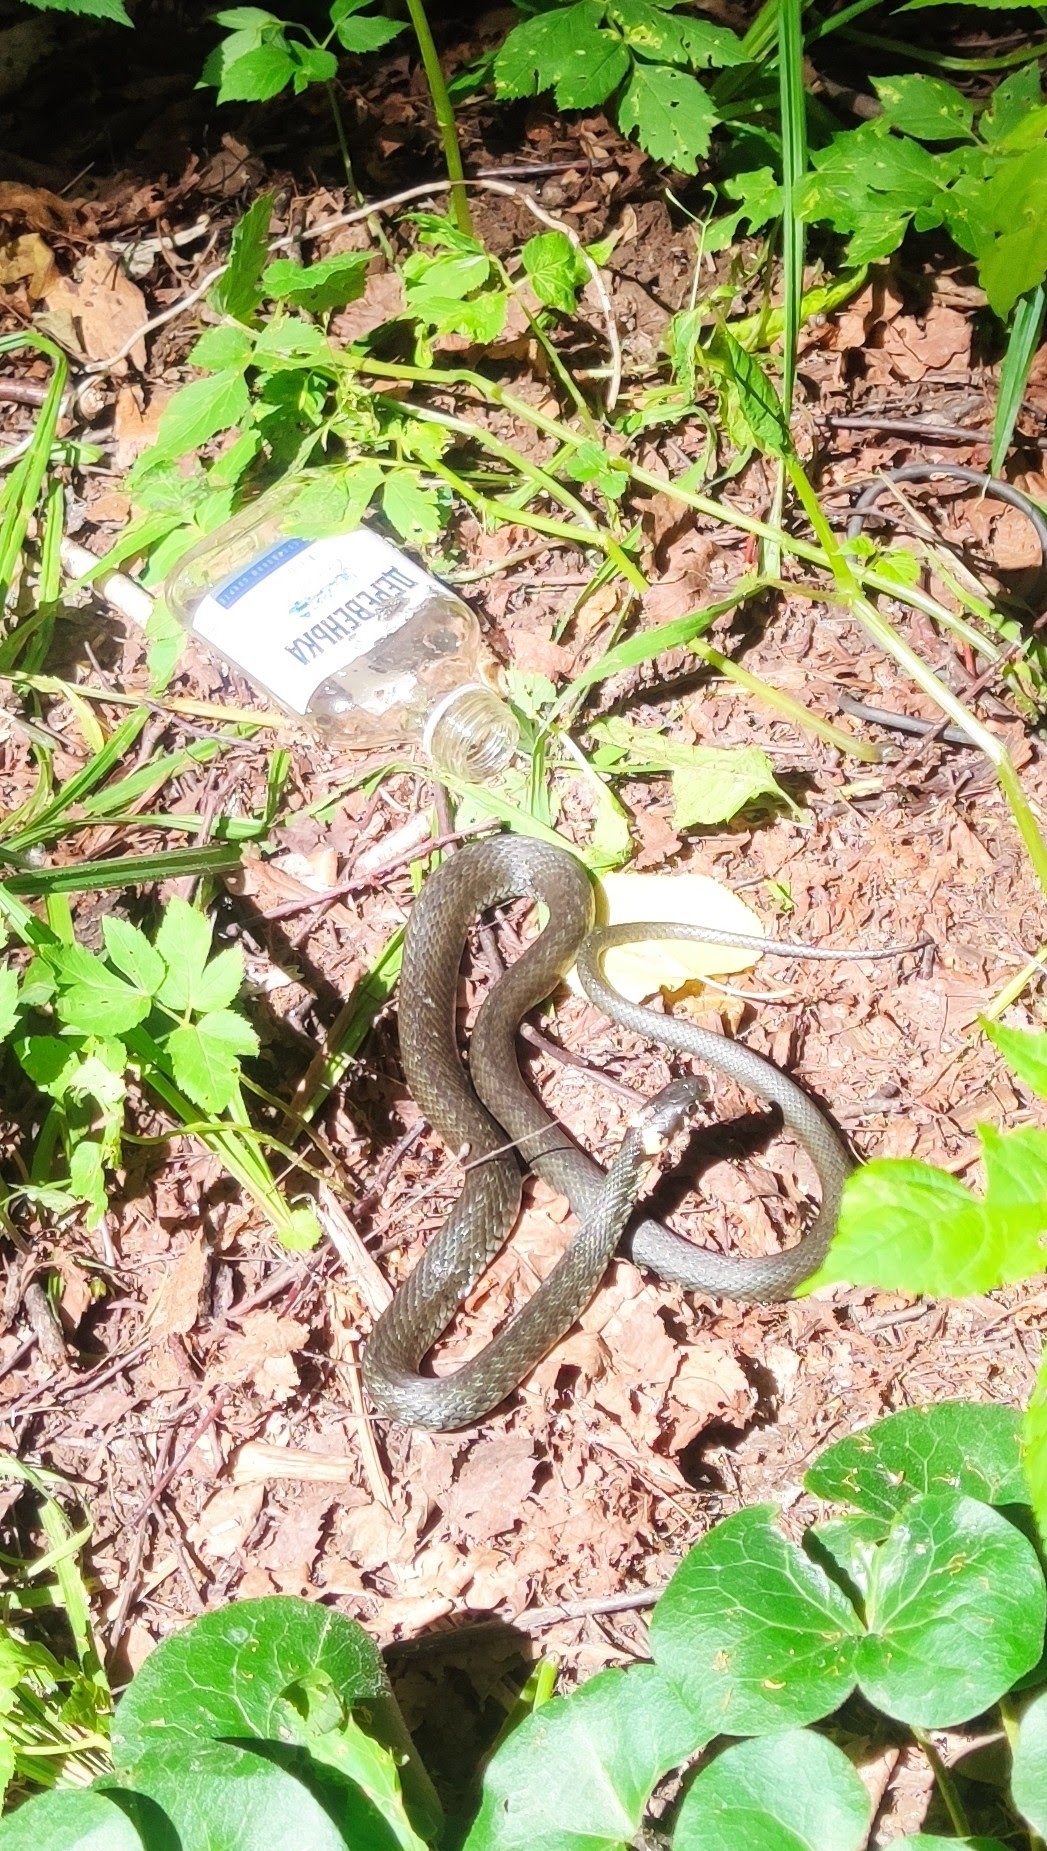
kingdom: Animalia
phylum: Chordata
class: Squamata
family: Colubridae
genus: Natrix
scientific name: Natrix natrix
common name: Grass snake
